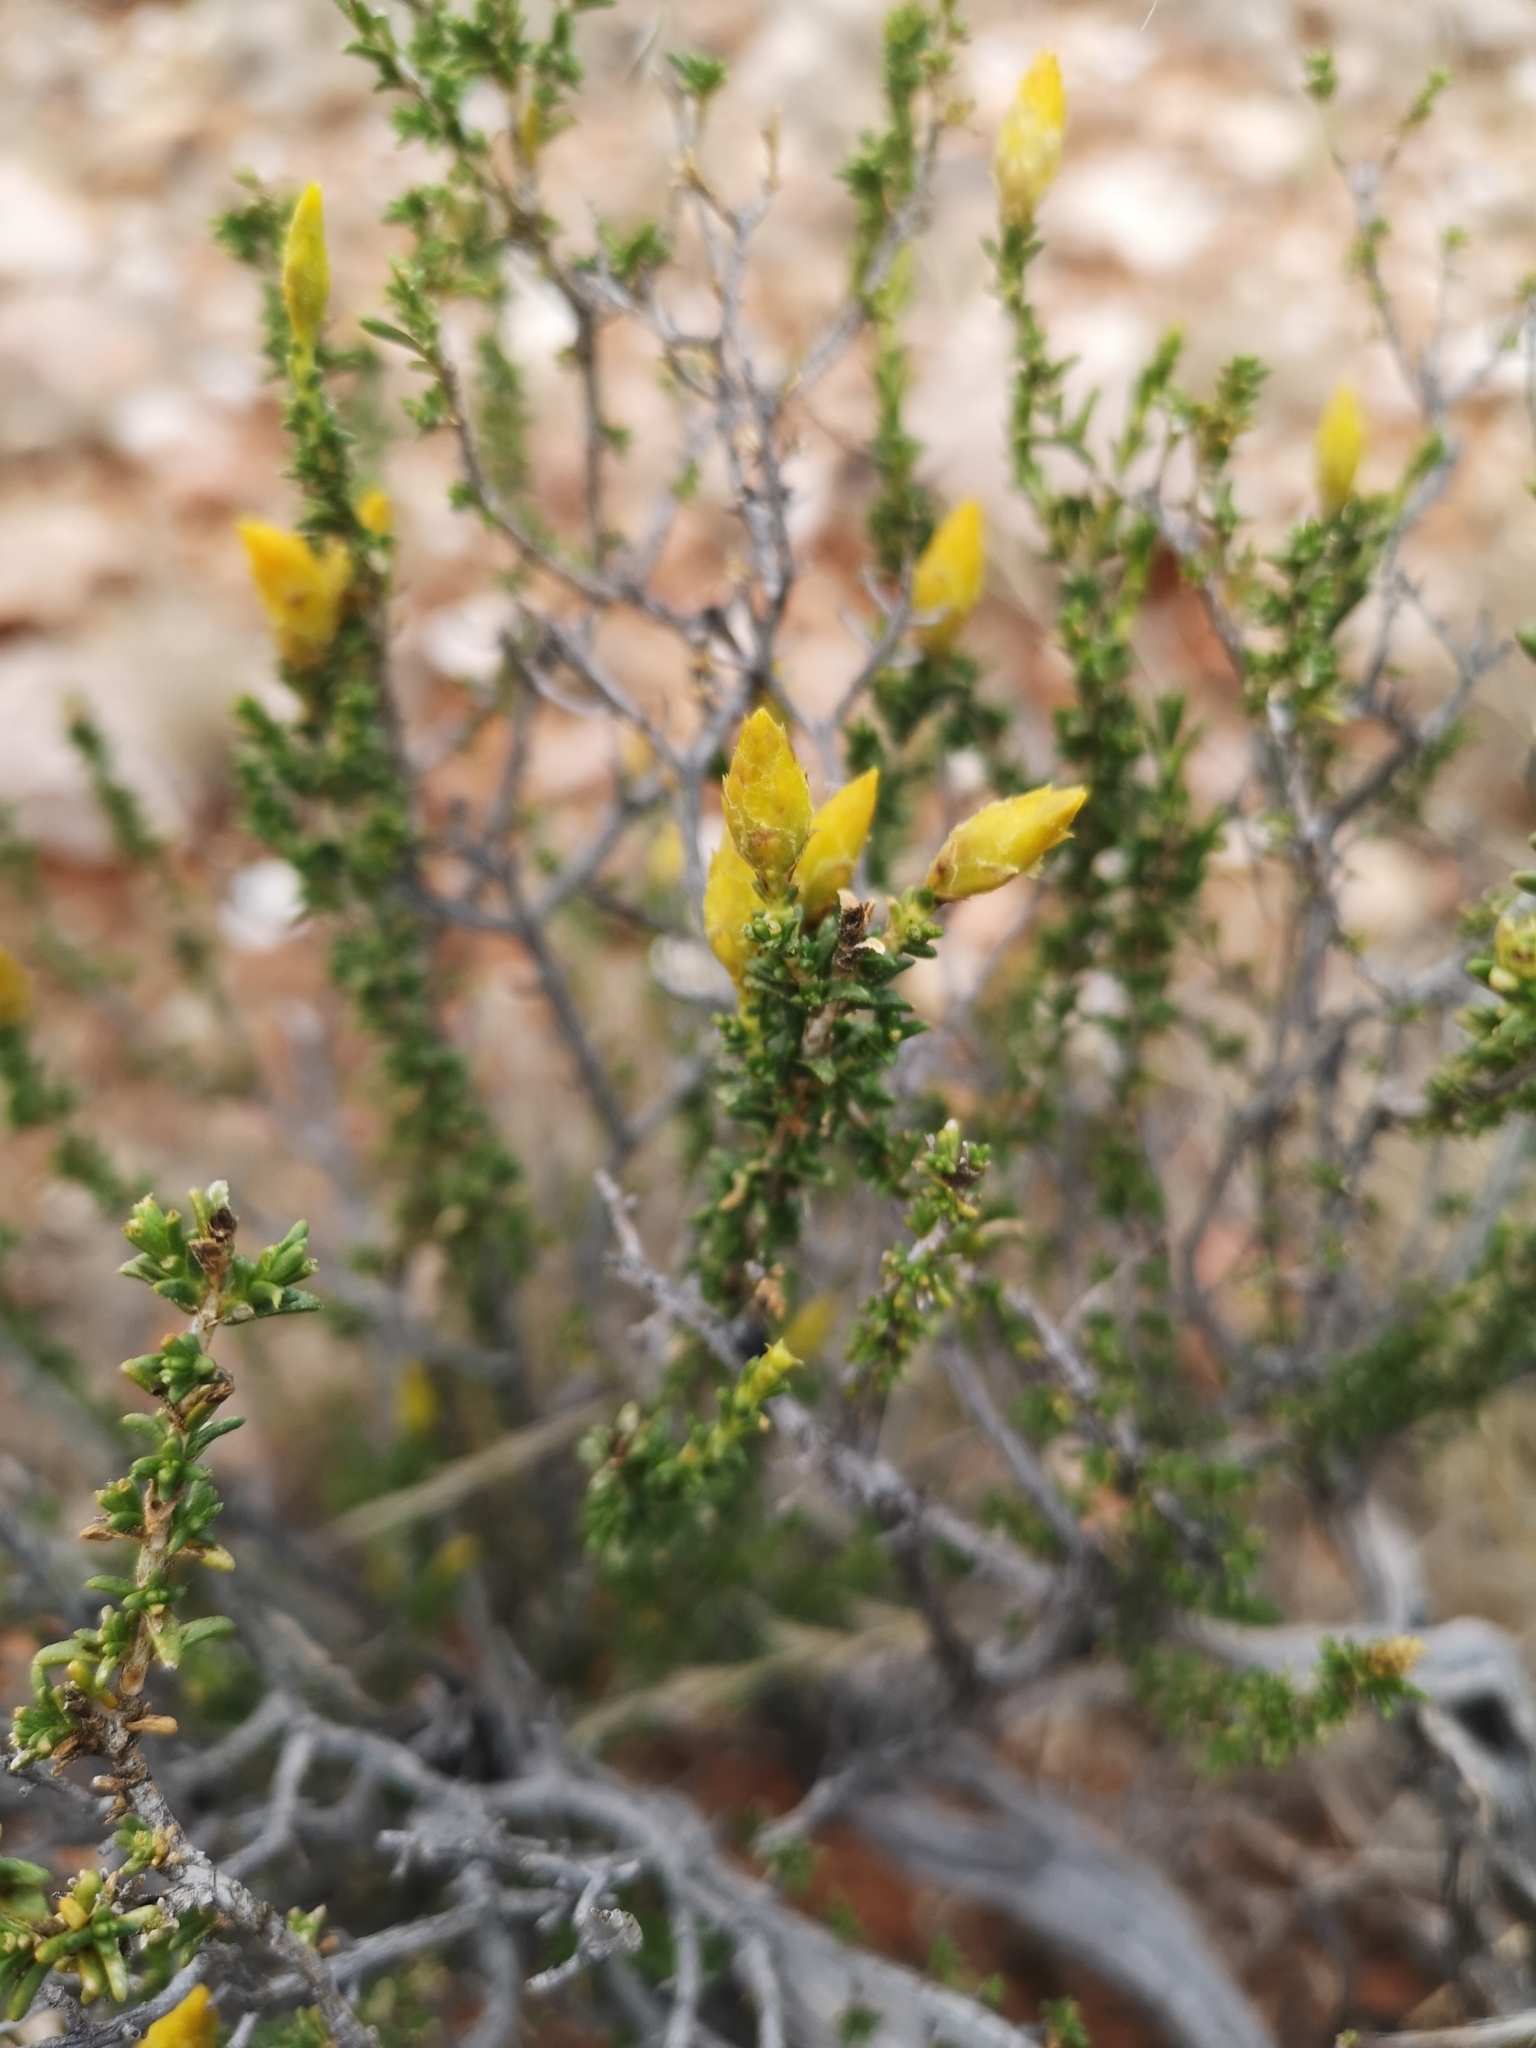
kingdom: Plantae
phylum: Tracheophyta
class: Magnoliopsida
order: Asterales
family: Asteraceae
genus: Pteronia
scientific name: Pteronia mucronata
